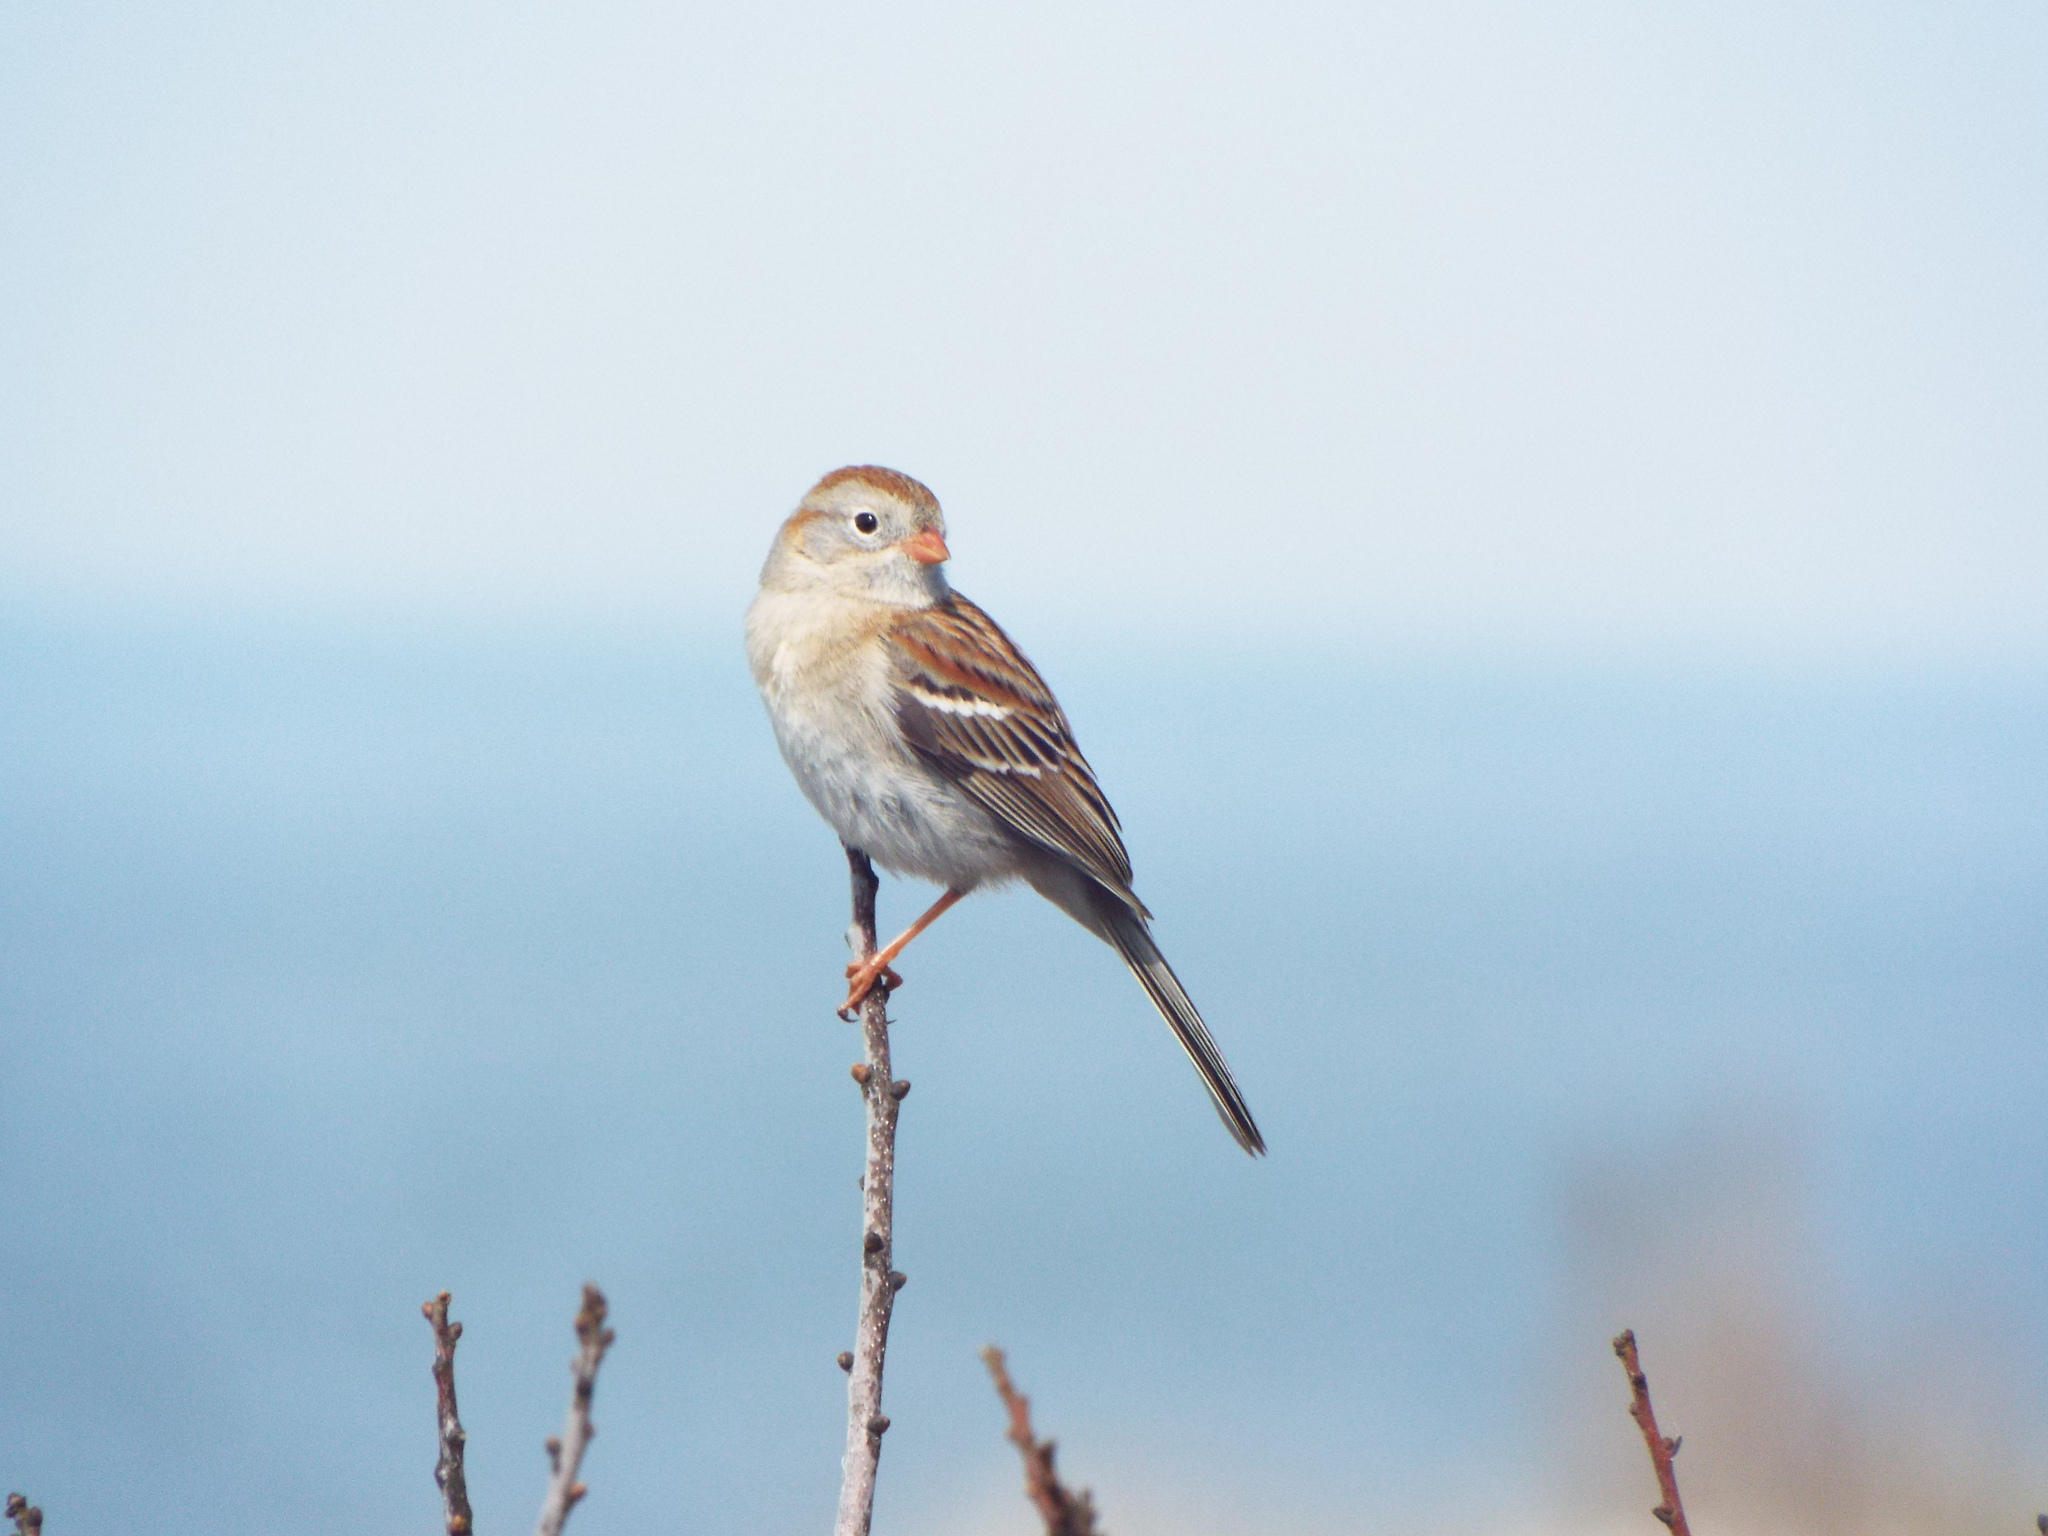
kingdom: Animalia
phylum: Chordata
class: Aves
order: Passeriformes
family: Passerellidae
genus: Spizella
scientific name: Spizella pusilla
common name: Field sparrow
